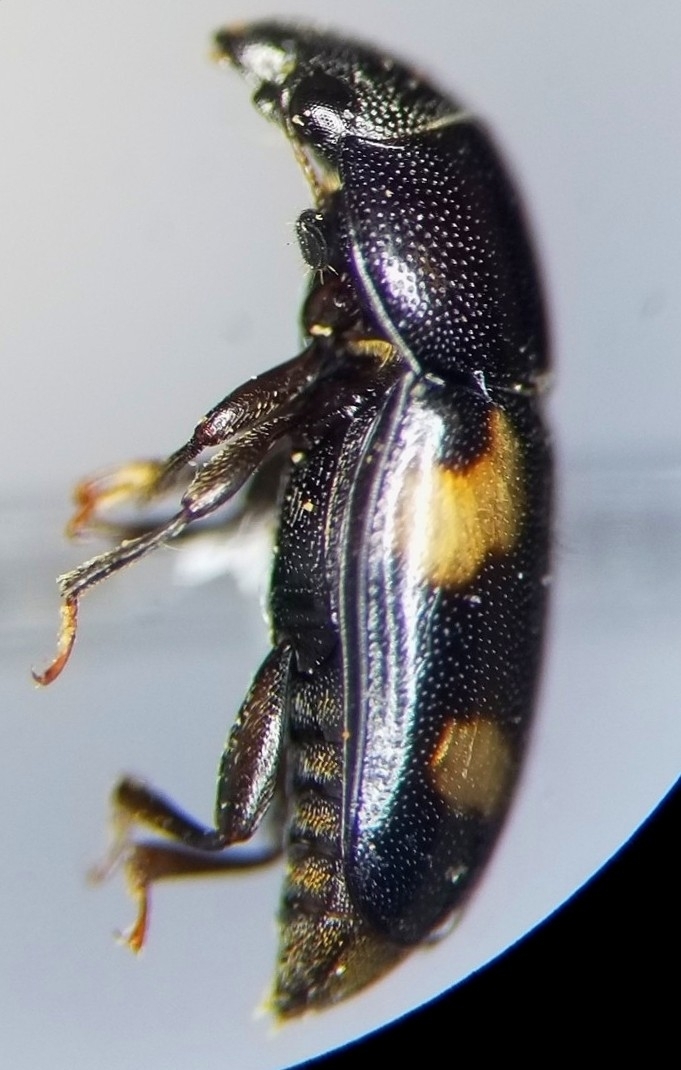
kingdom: Animalia
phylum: Arthropoda
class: Insecta
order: Coleoptera
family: Nitidulidae
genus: Glischrochilus
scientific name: Glischrochilus quadrisignatus
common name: Picnic beetle
